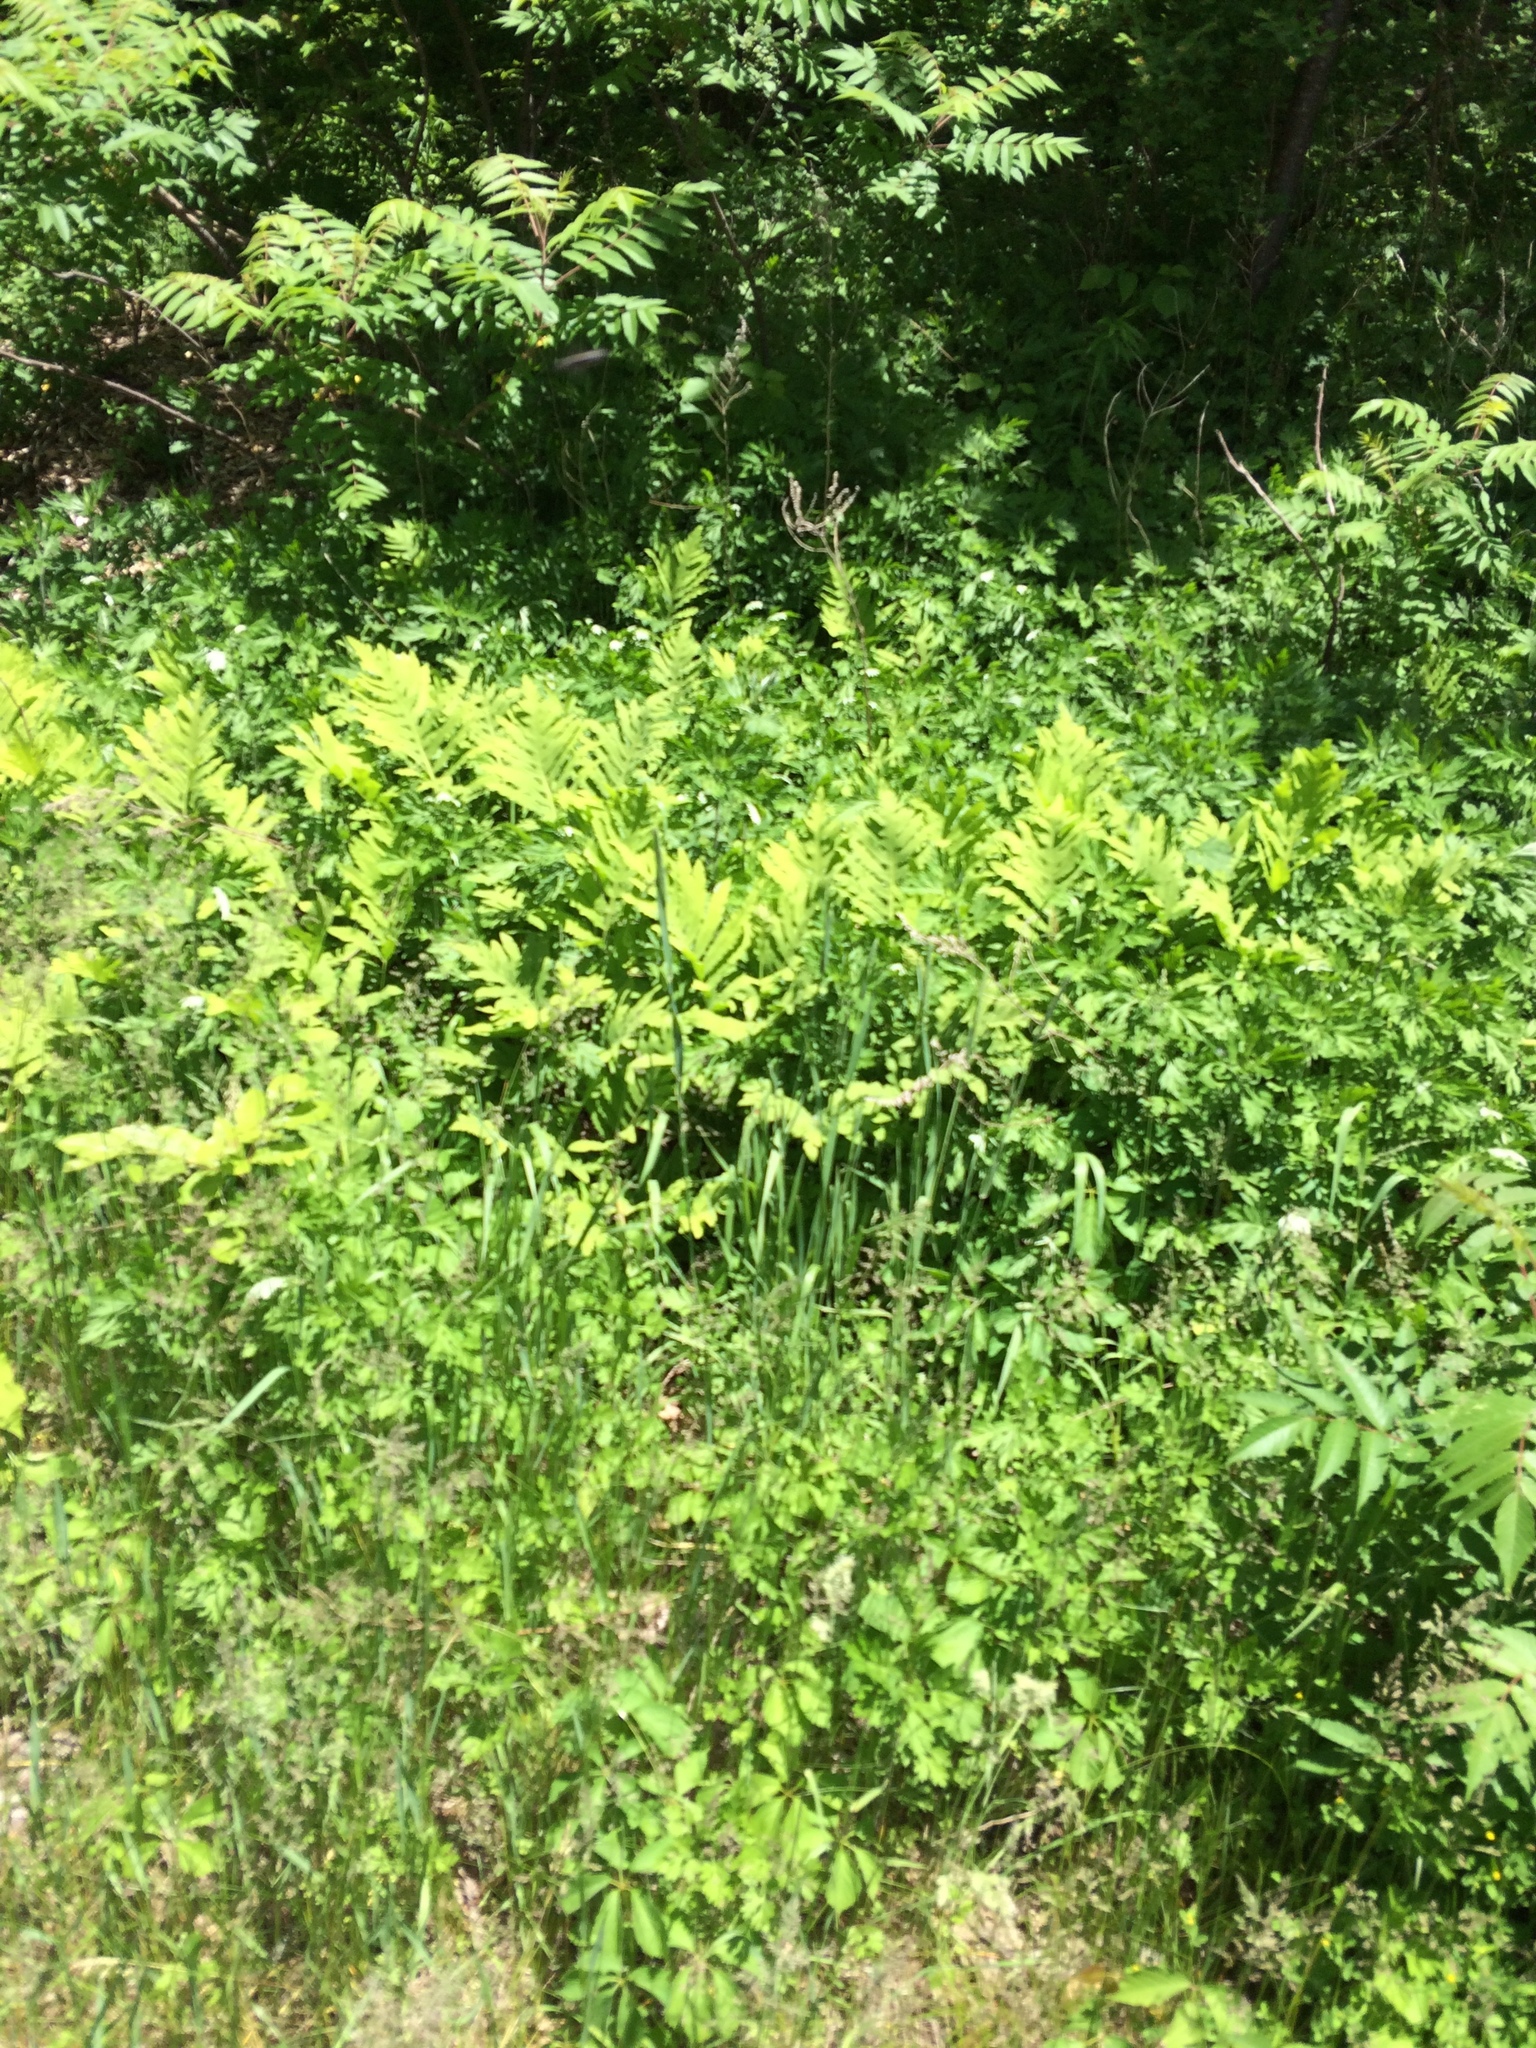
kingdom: Plantae
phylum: Tracheophyta
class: Polypodiopsida
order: Polypodiales
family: Onocleaceae
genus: Onoclea
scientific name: Onoclea sensibilis
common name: Sensitive fern
